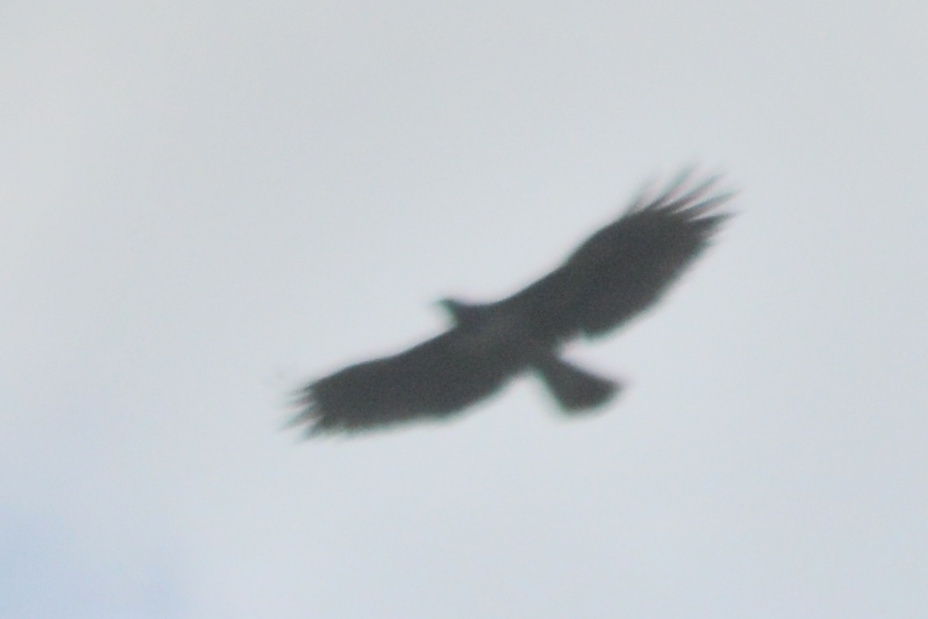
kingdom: Animalia
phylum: Chordata
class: Aves
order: Accipitriformes
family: Cathartidae
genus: Cathartes
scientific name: Cathartes aura
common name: Turkey vulture
